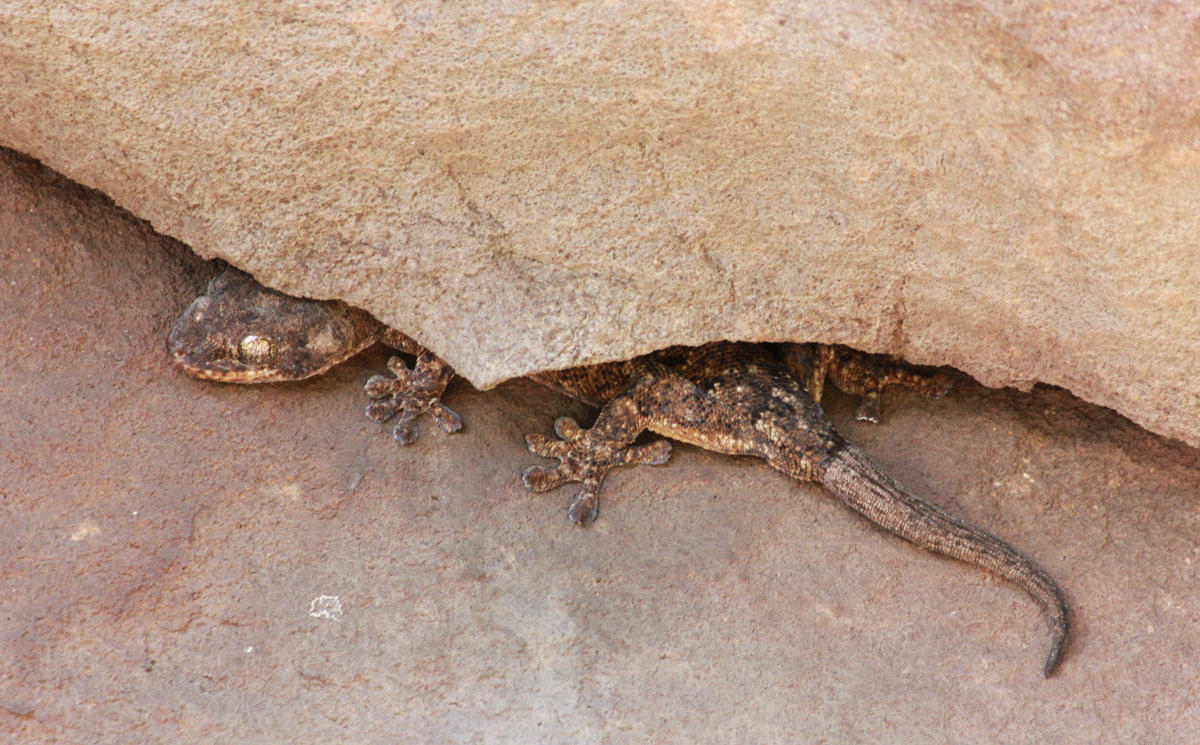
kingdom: Animalia
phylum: Chordata
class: Squamata
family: Gekkonidae
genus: Homopholis
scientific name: Homopholis walbergii
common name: Wahlberg’s velvet gecko
